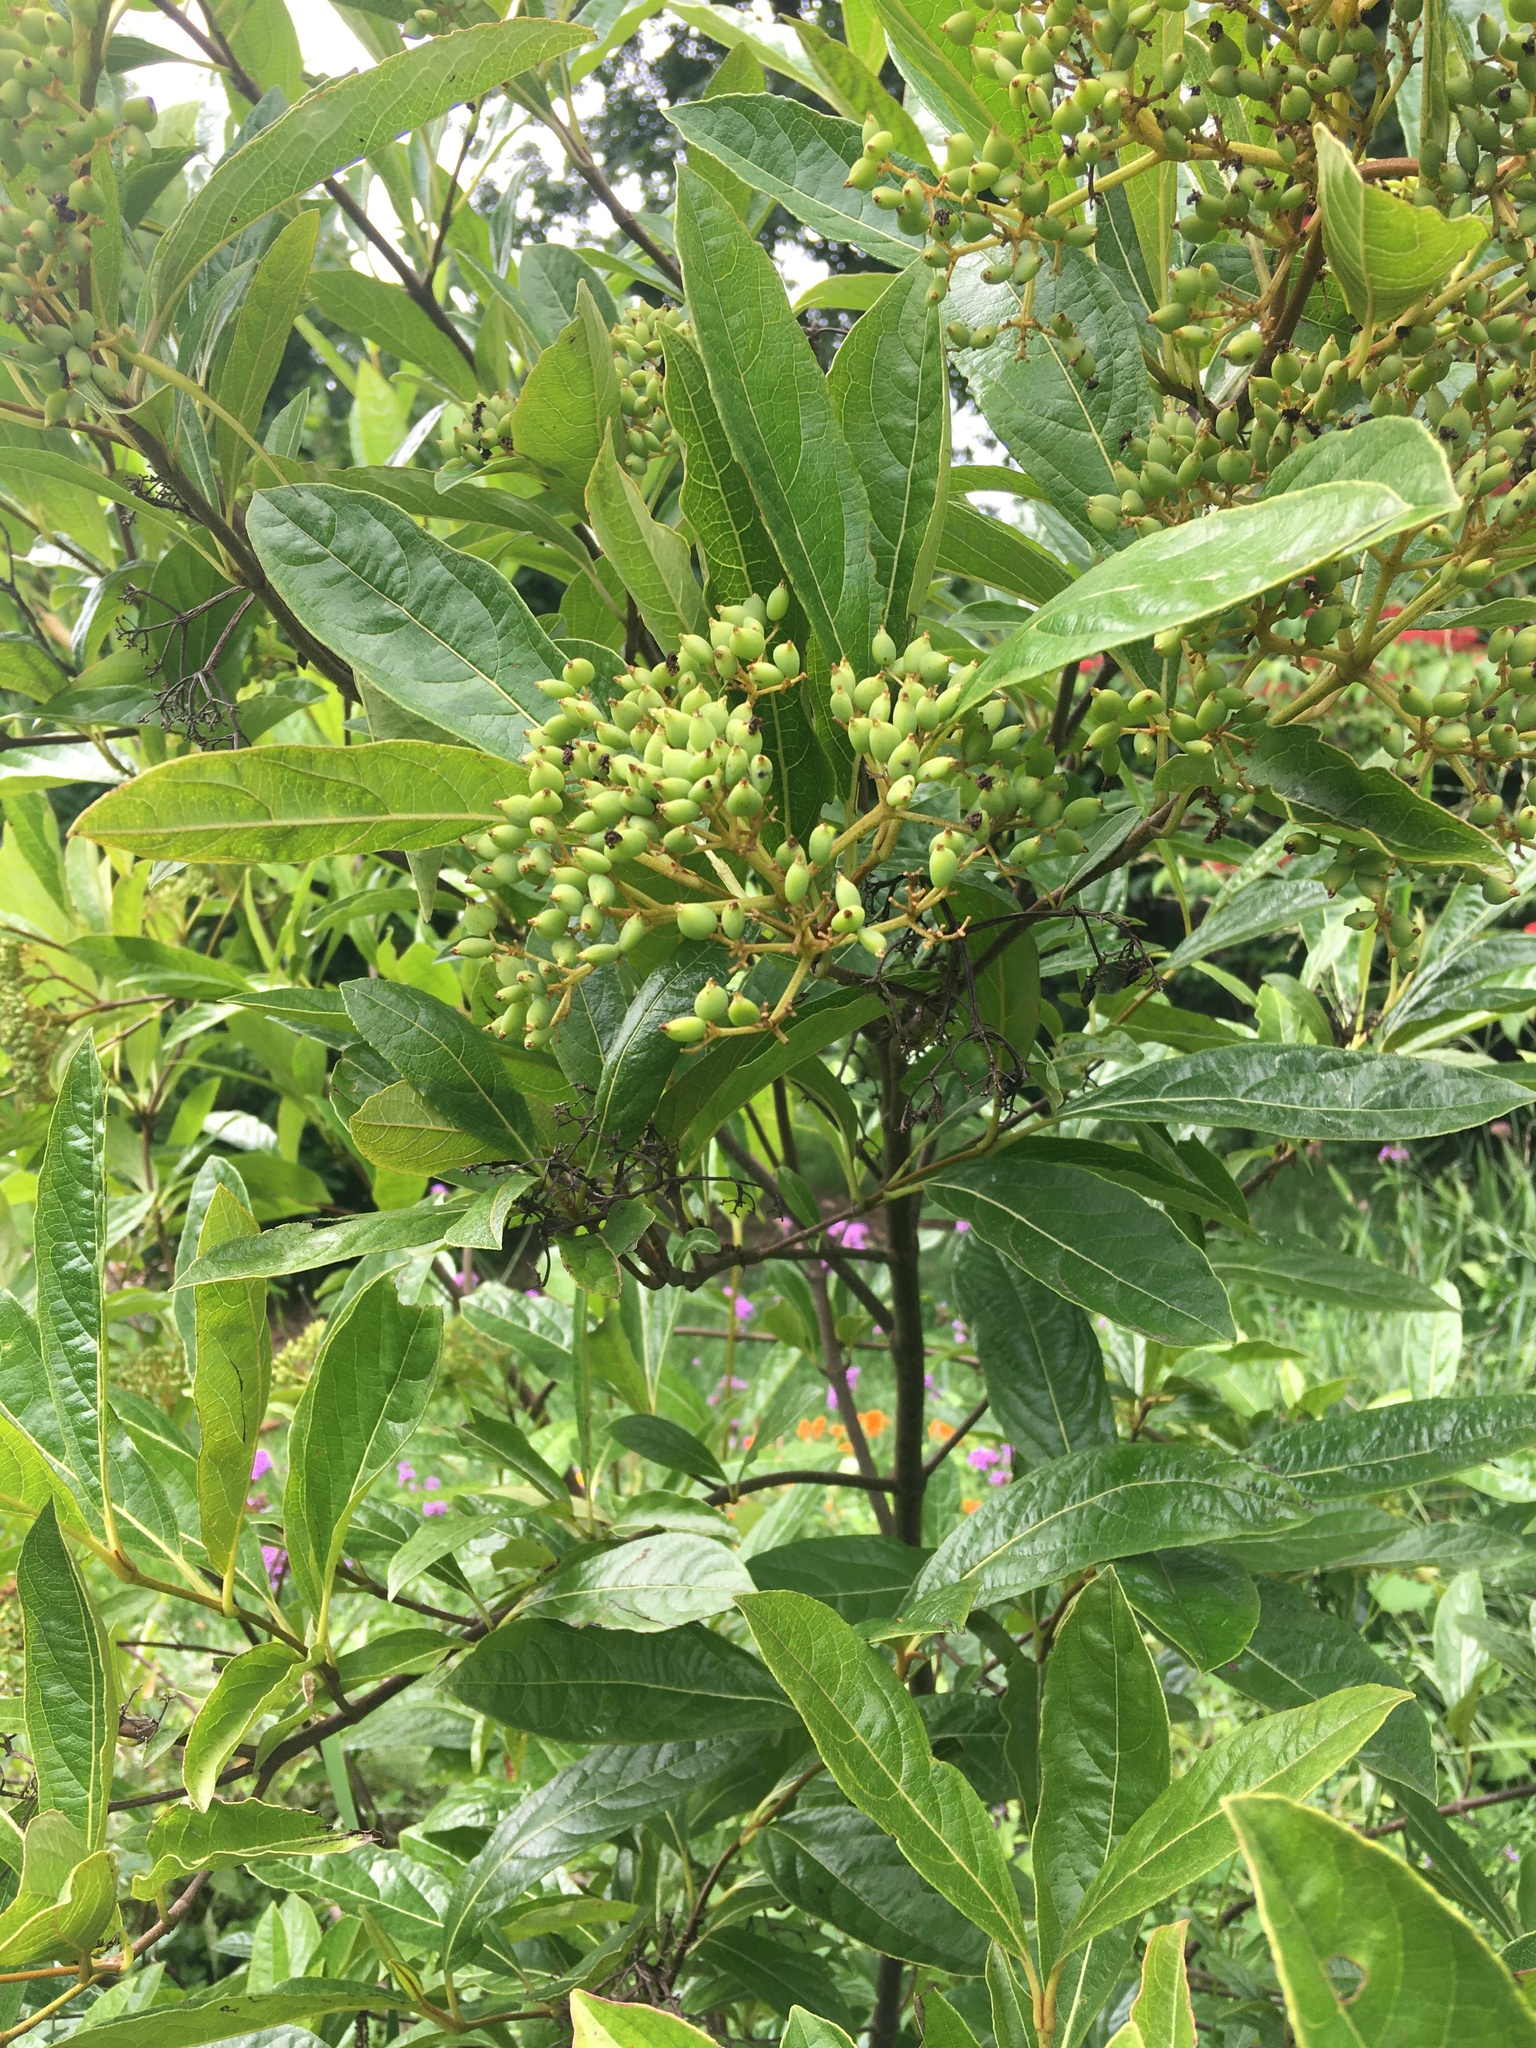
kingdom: Plantae
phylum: Tracheophyta
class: Magnoliopsida
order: Dipsacales
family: Viburnaceae
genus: Viburnum
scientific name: Viburnum cassinoides
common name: Swamp haw
